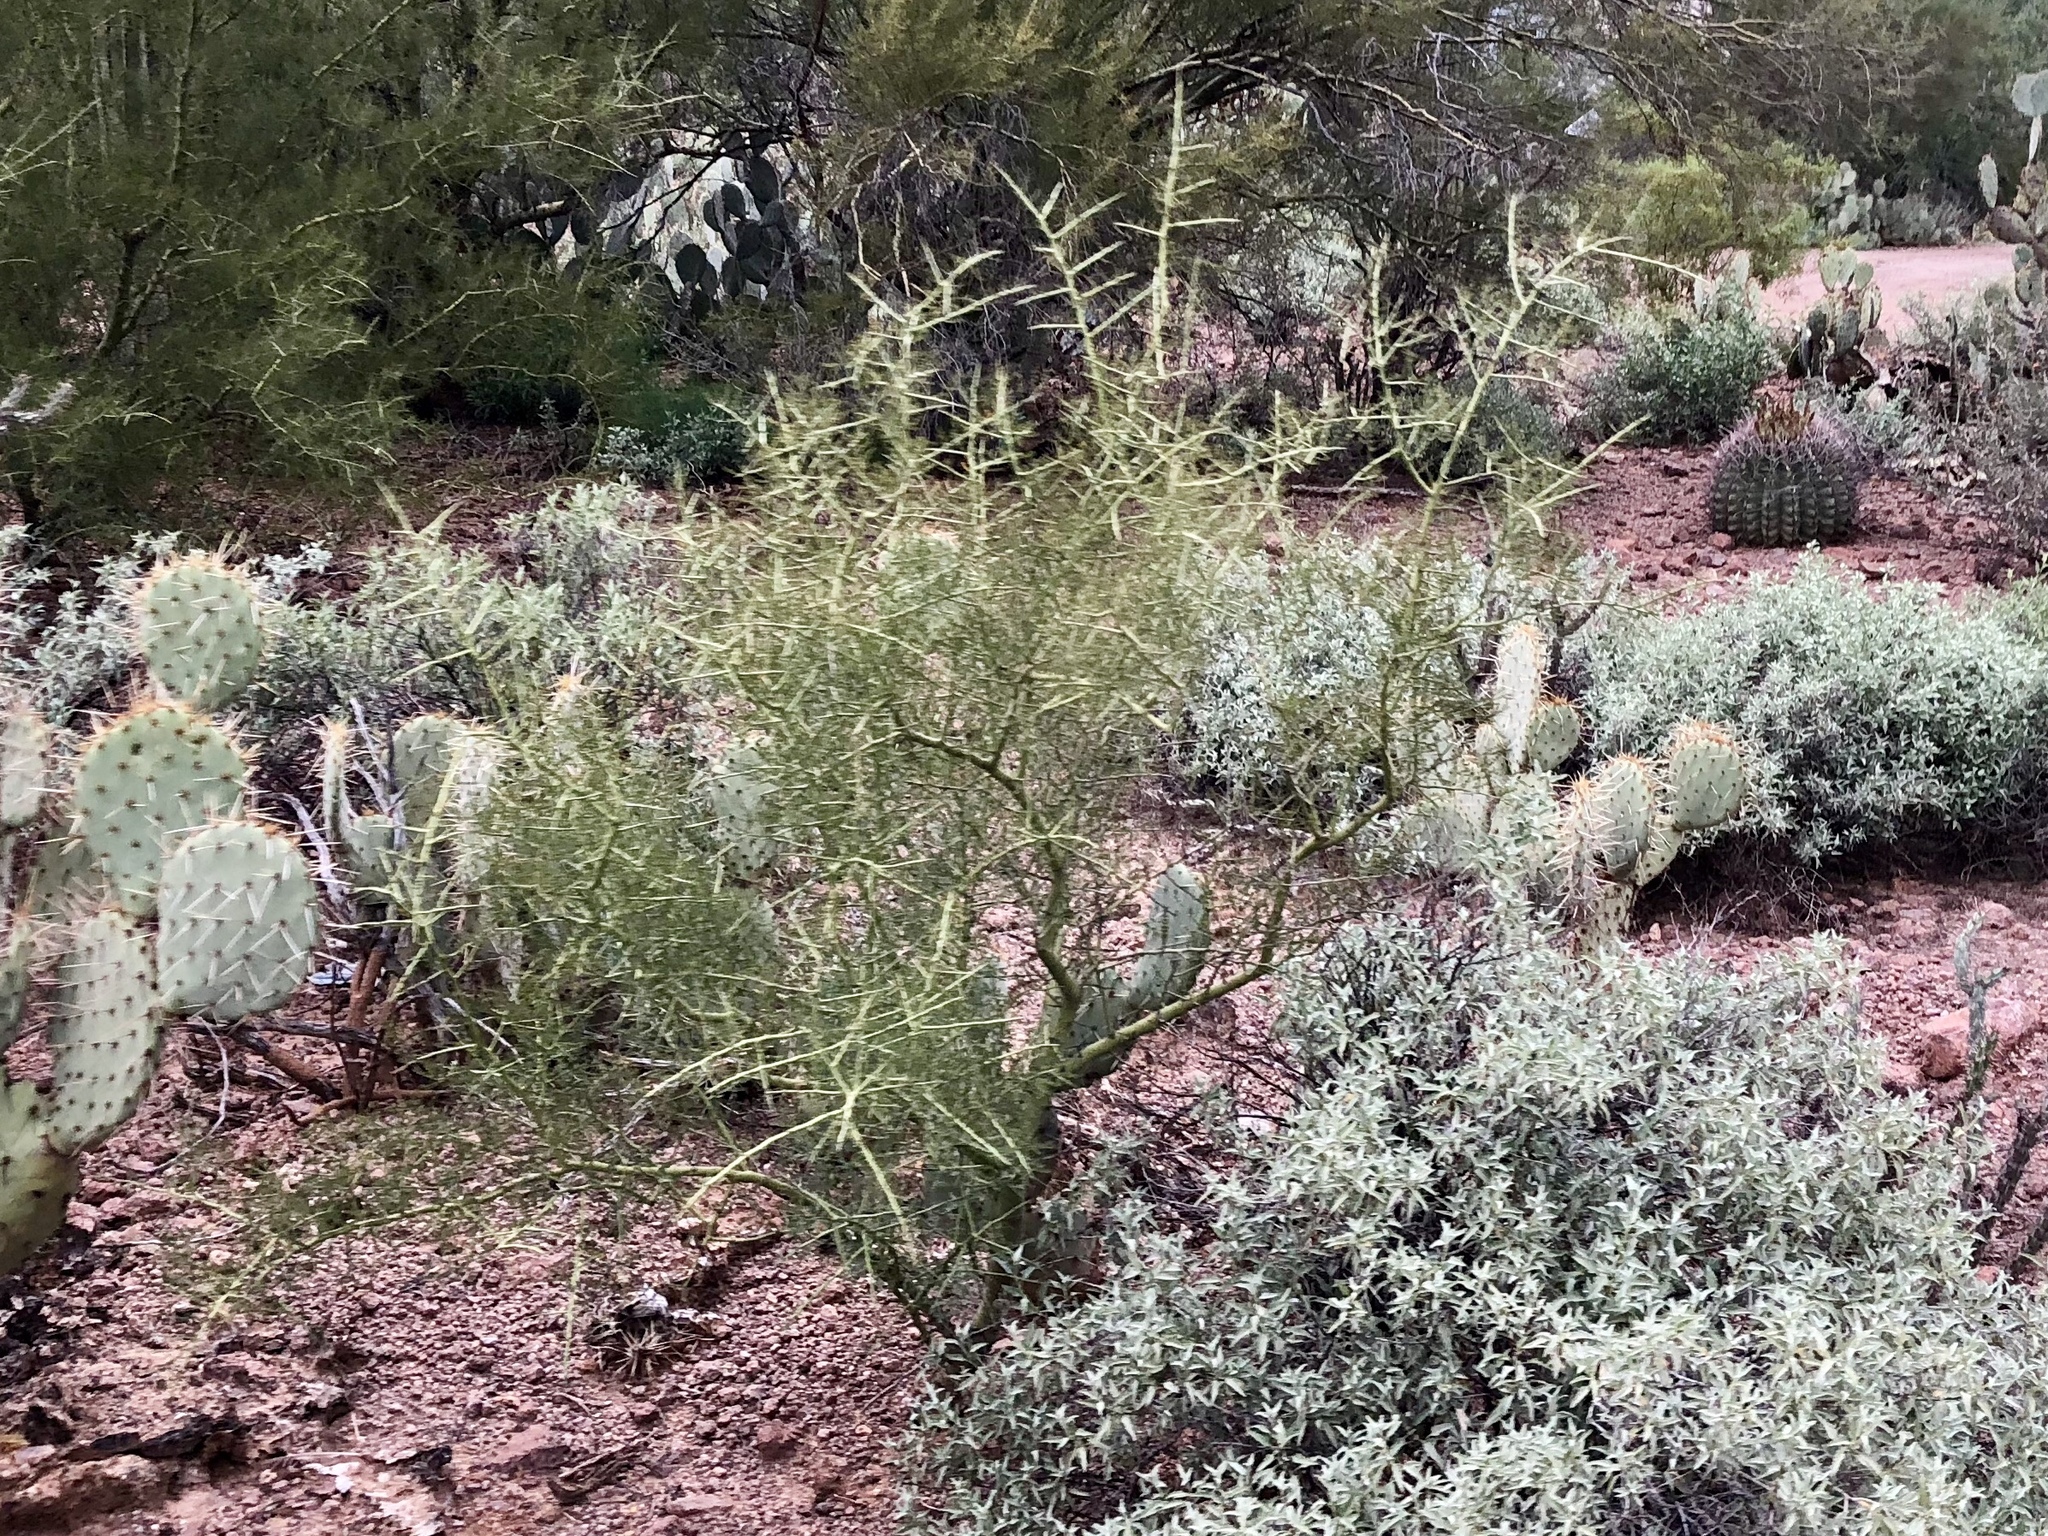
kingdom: Plantae
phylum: Tracheophyta
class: Magnoliopsida
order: Fabales
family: Fabaceae
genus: Parkinsonia
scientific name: Parkinsonia microphylla
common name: Yellow paloverde
